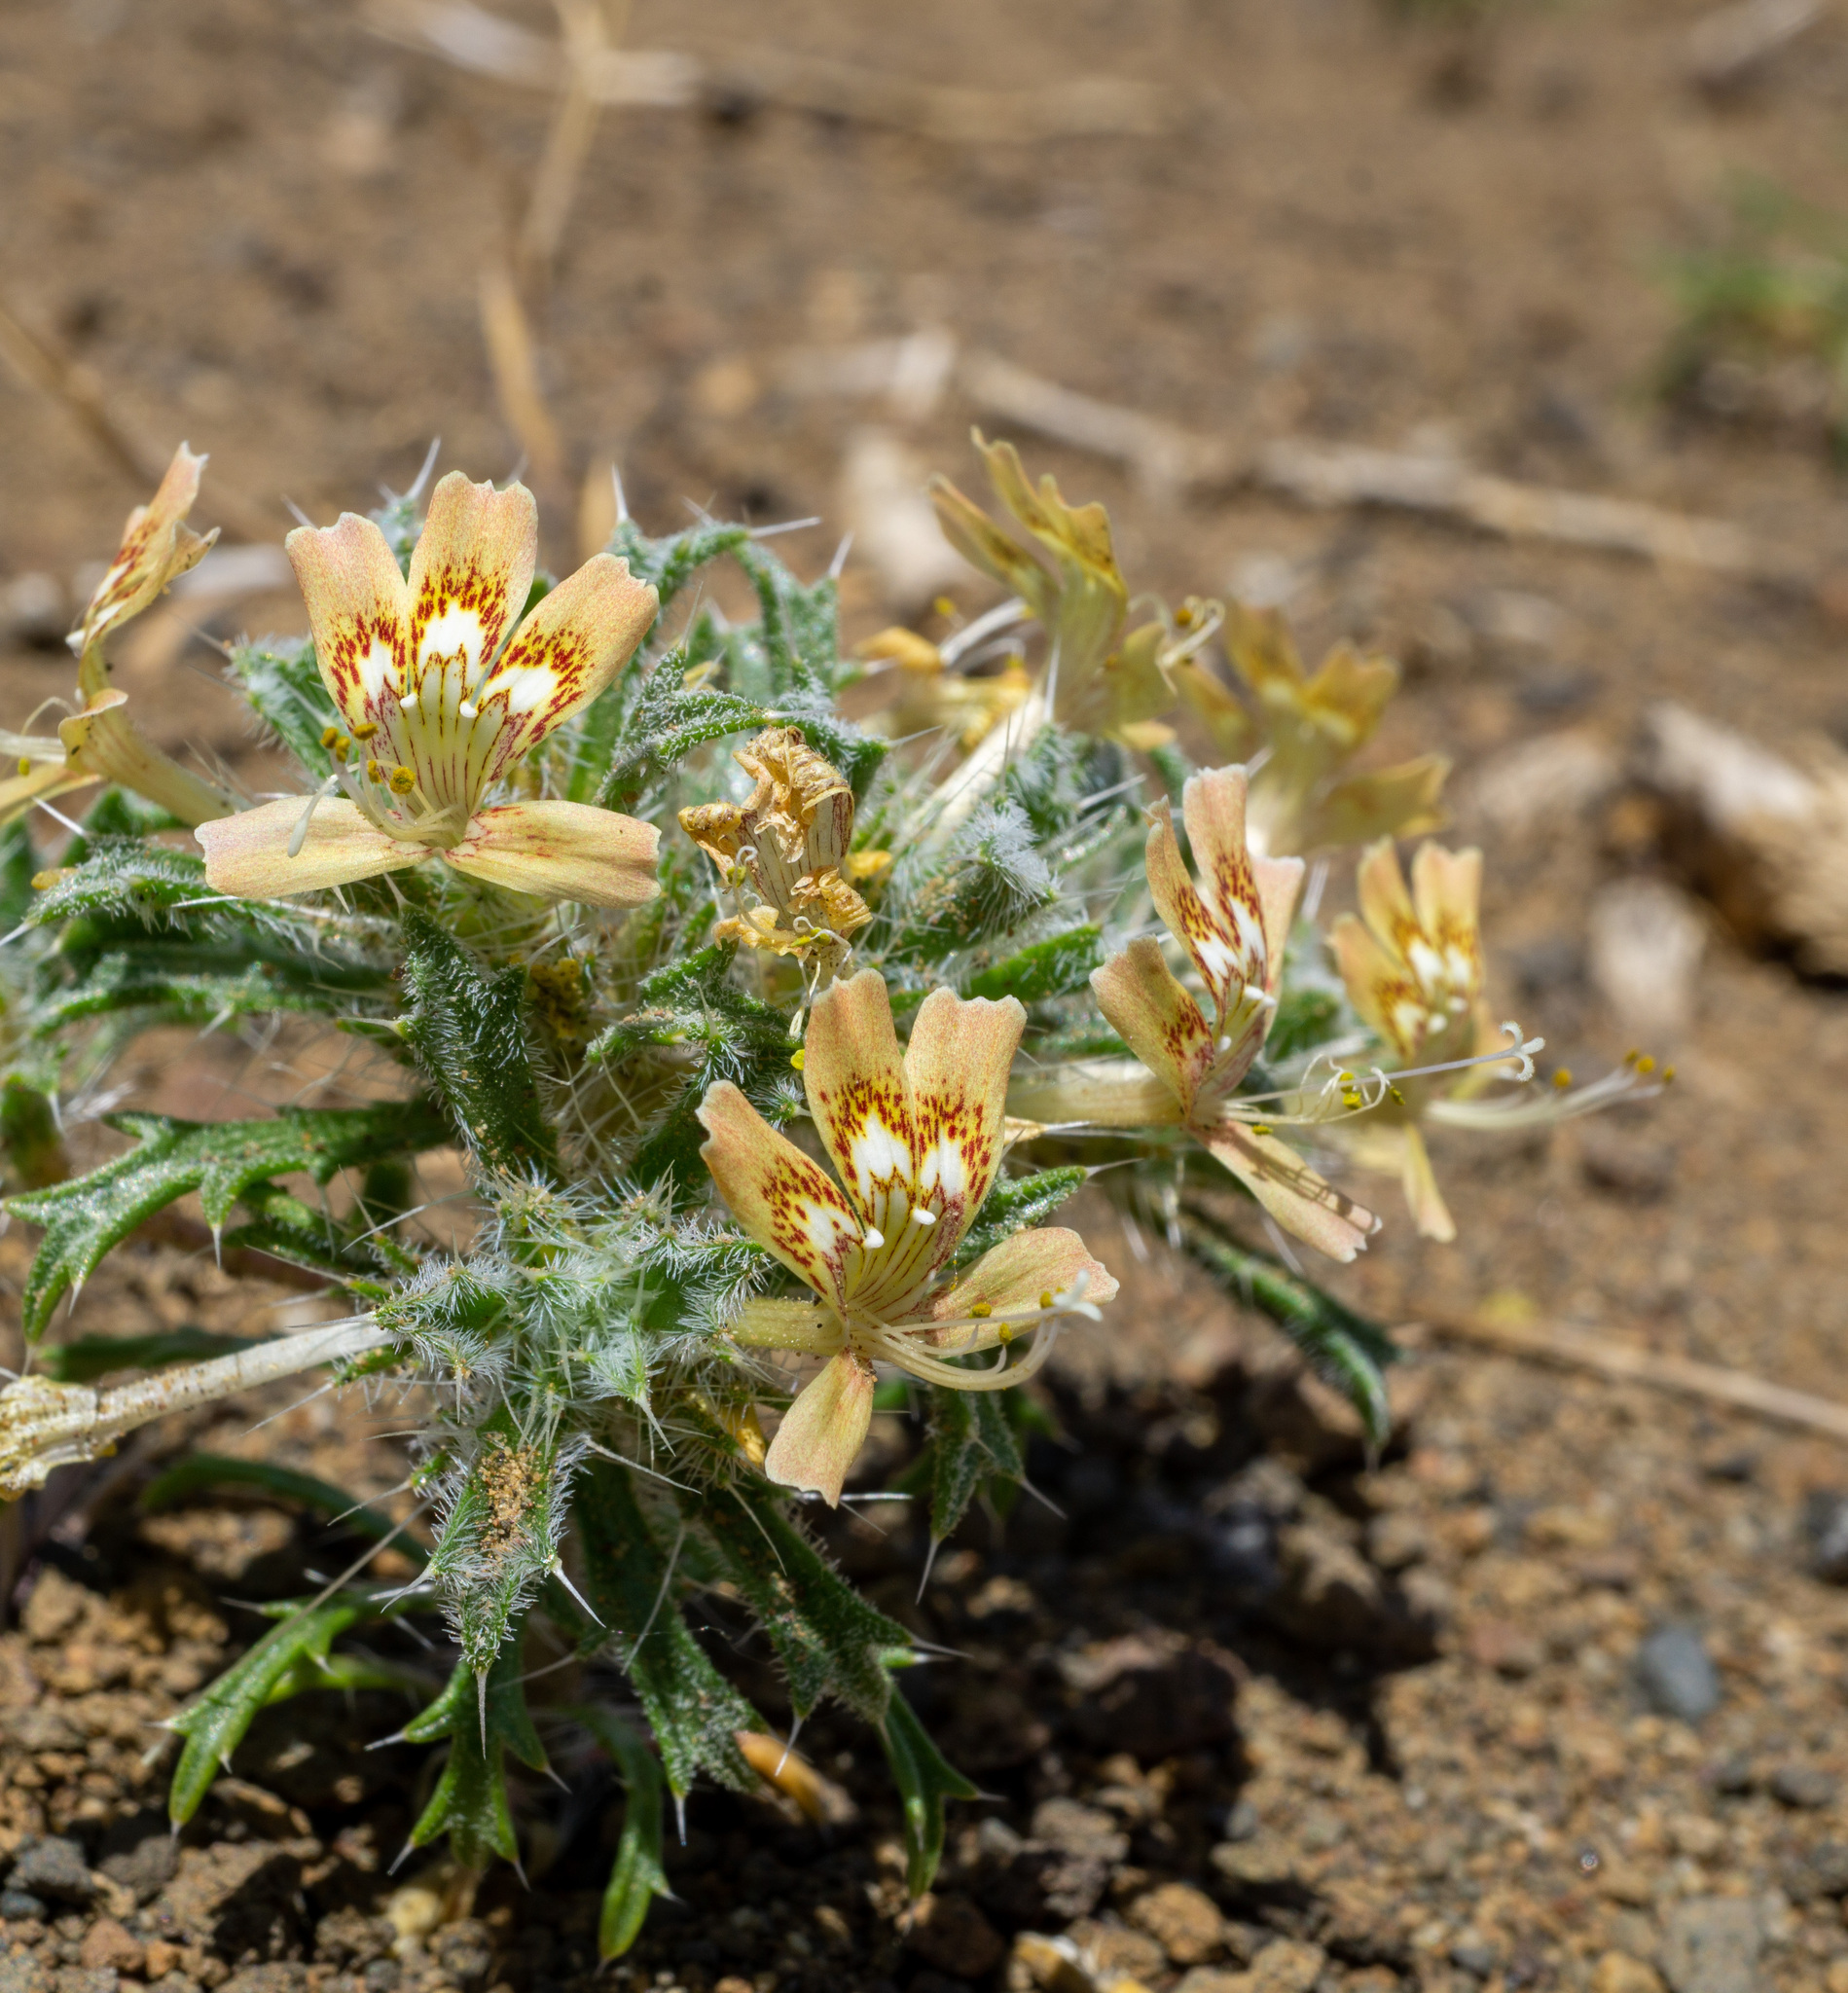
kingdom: Plantae
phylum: Tracheophyta
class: Magnoliopsida
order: Ericales
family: Polemoniaceae
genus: Loeseliastrum
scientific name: Loeseliastrum matthewsii
